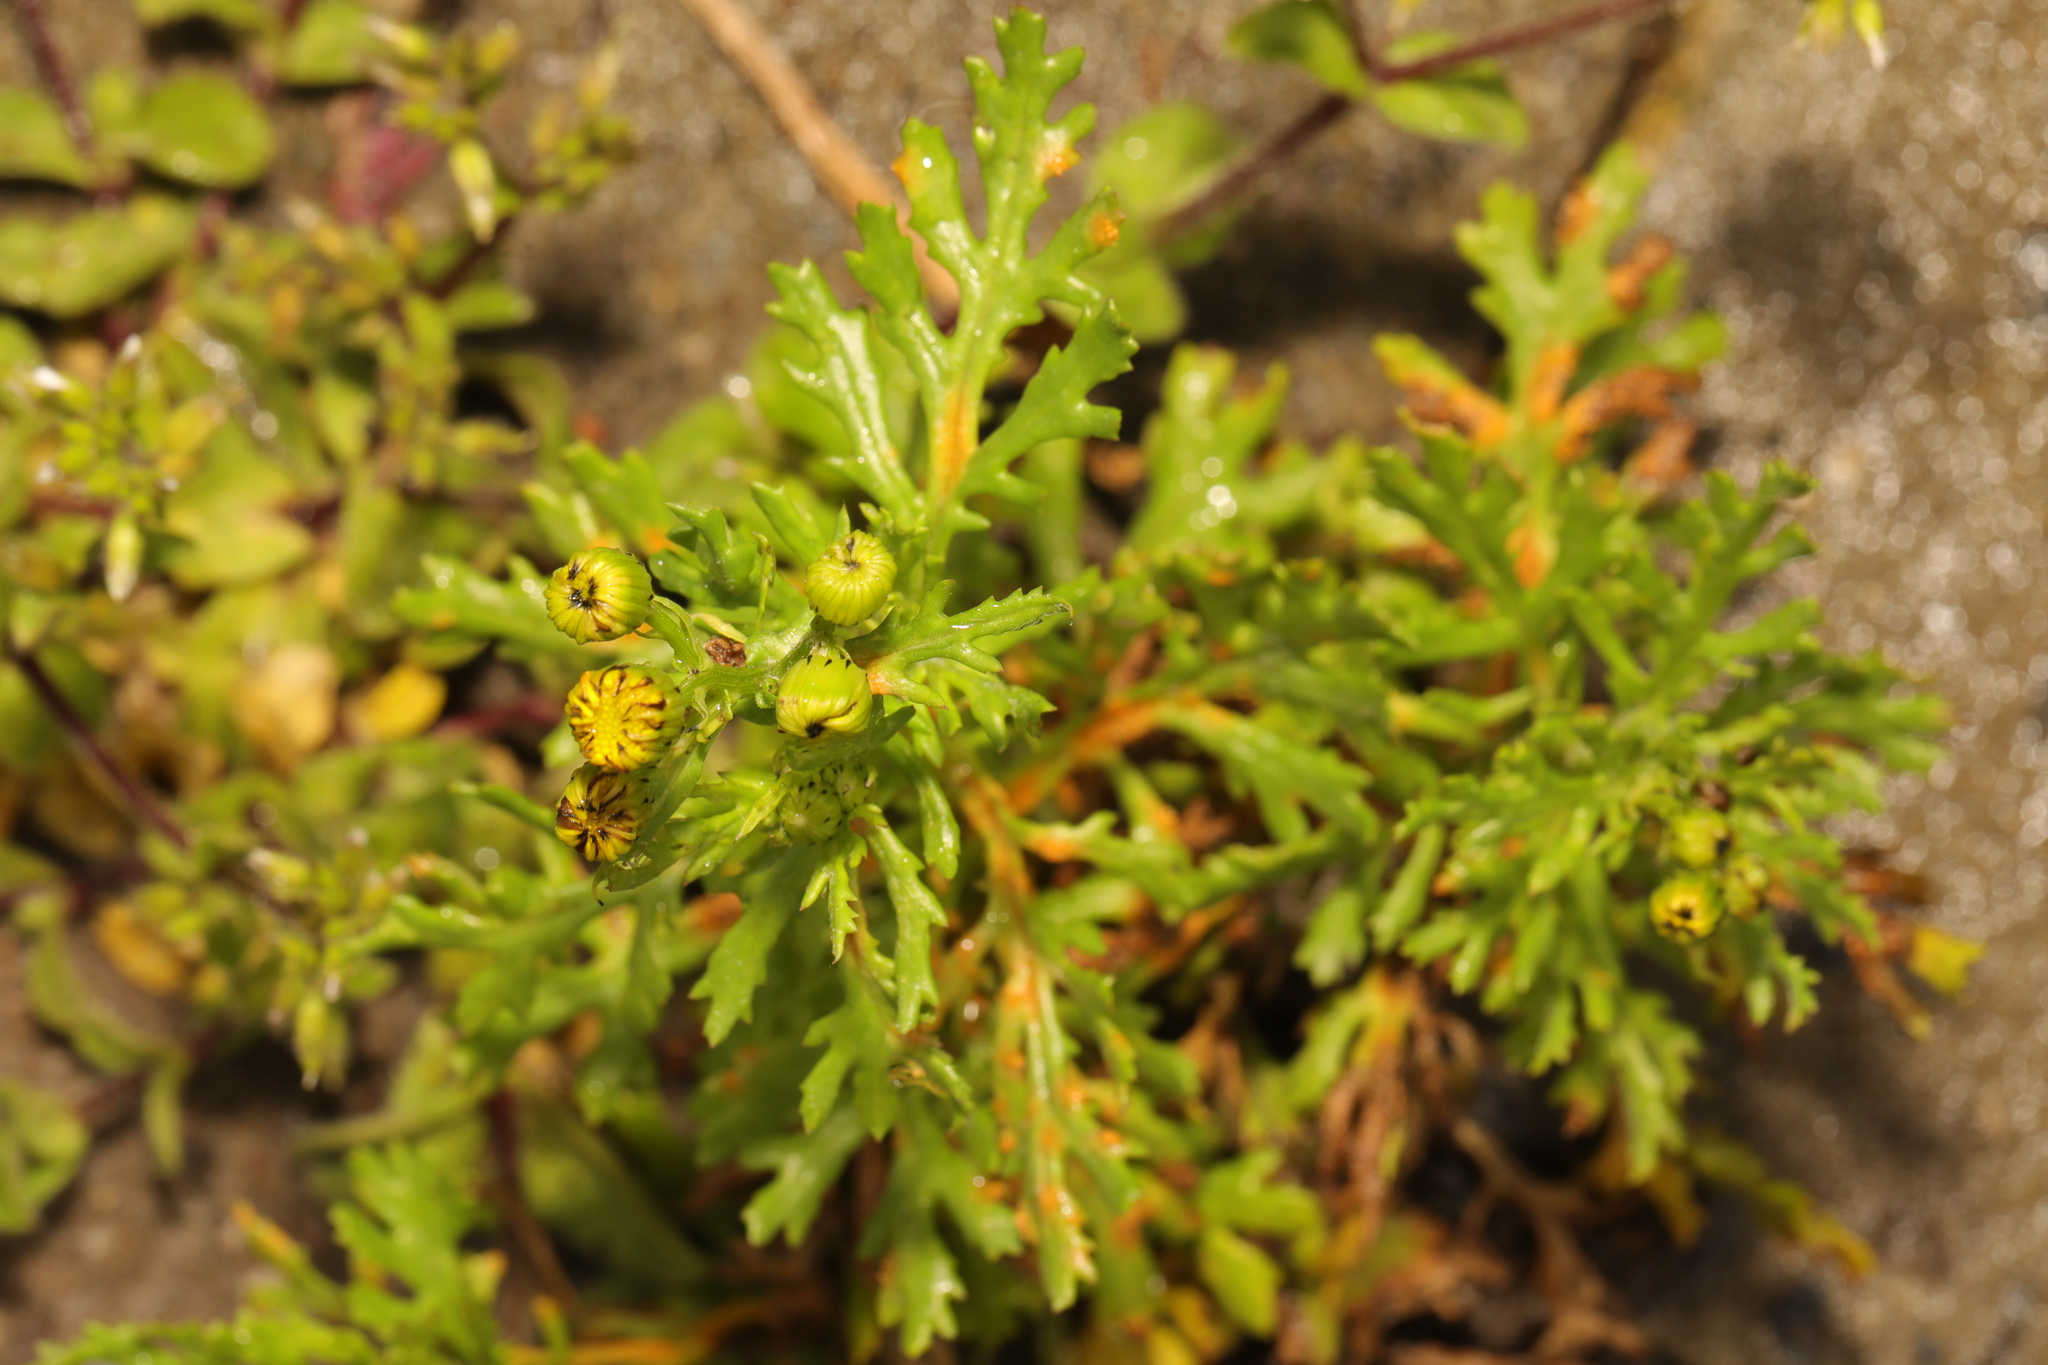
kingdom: Plantae
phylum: Tracheophyta
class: Magnoliopsida
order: Asterales
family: Asteraceae
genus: Senecio
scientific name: Senecio squalidus
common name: Oxford ragwort
